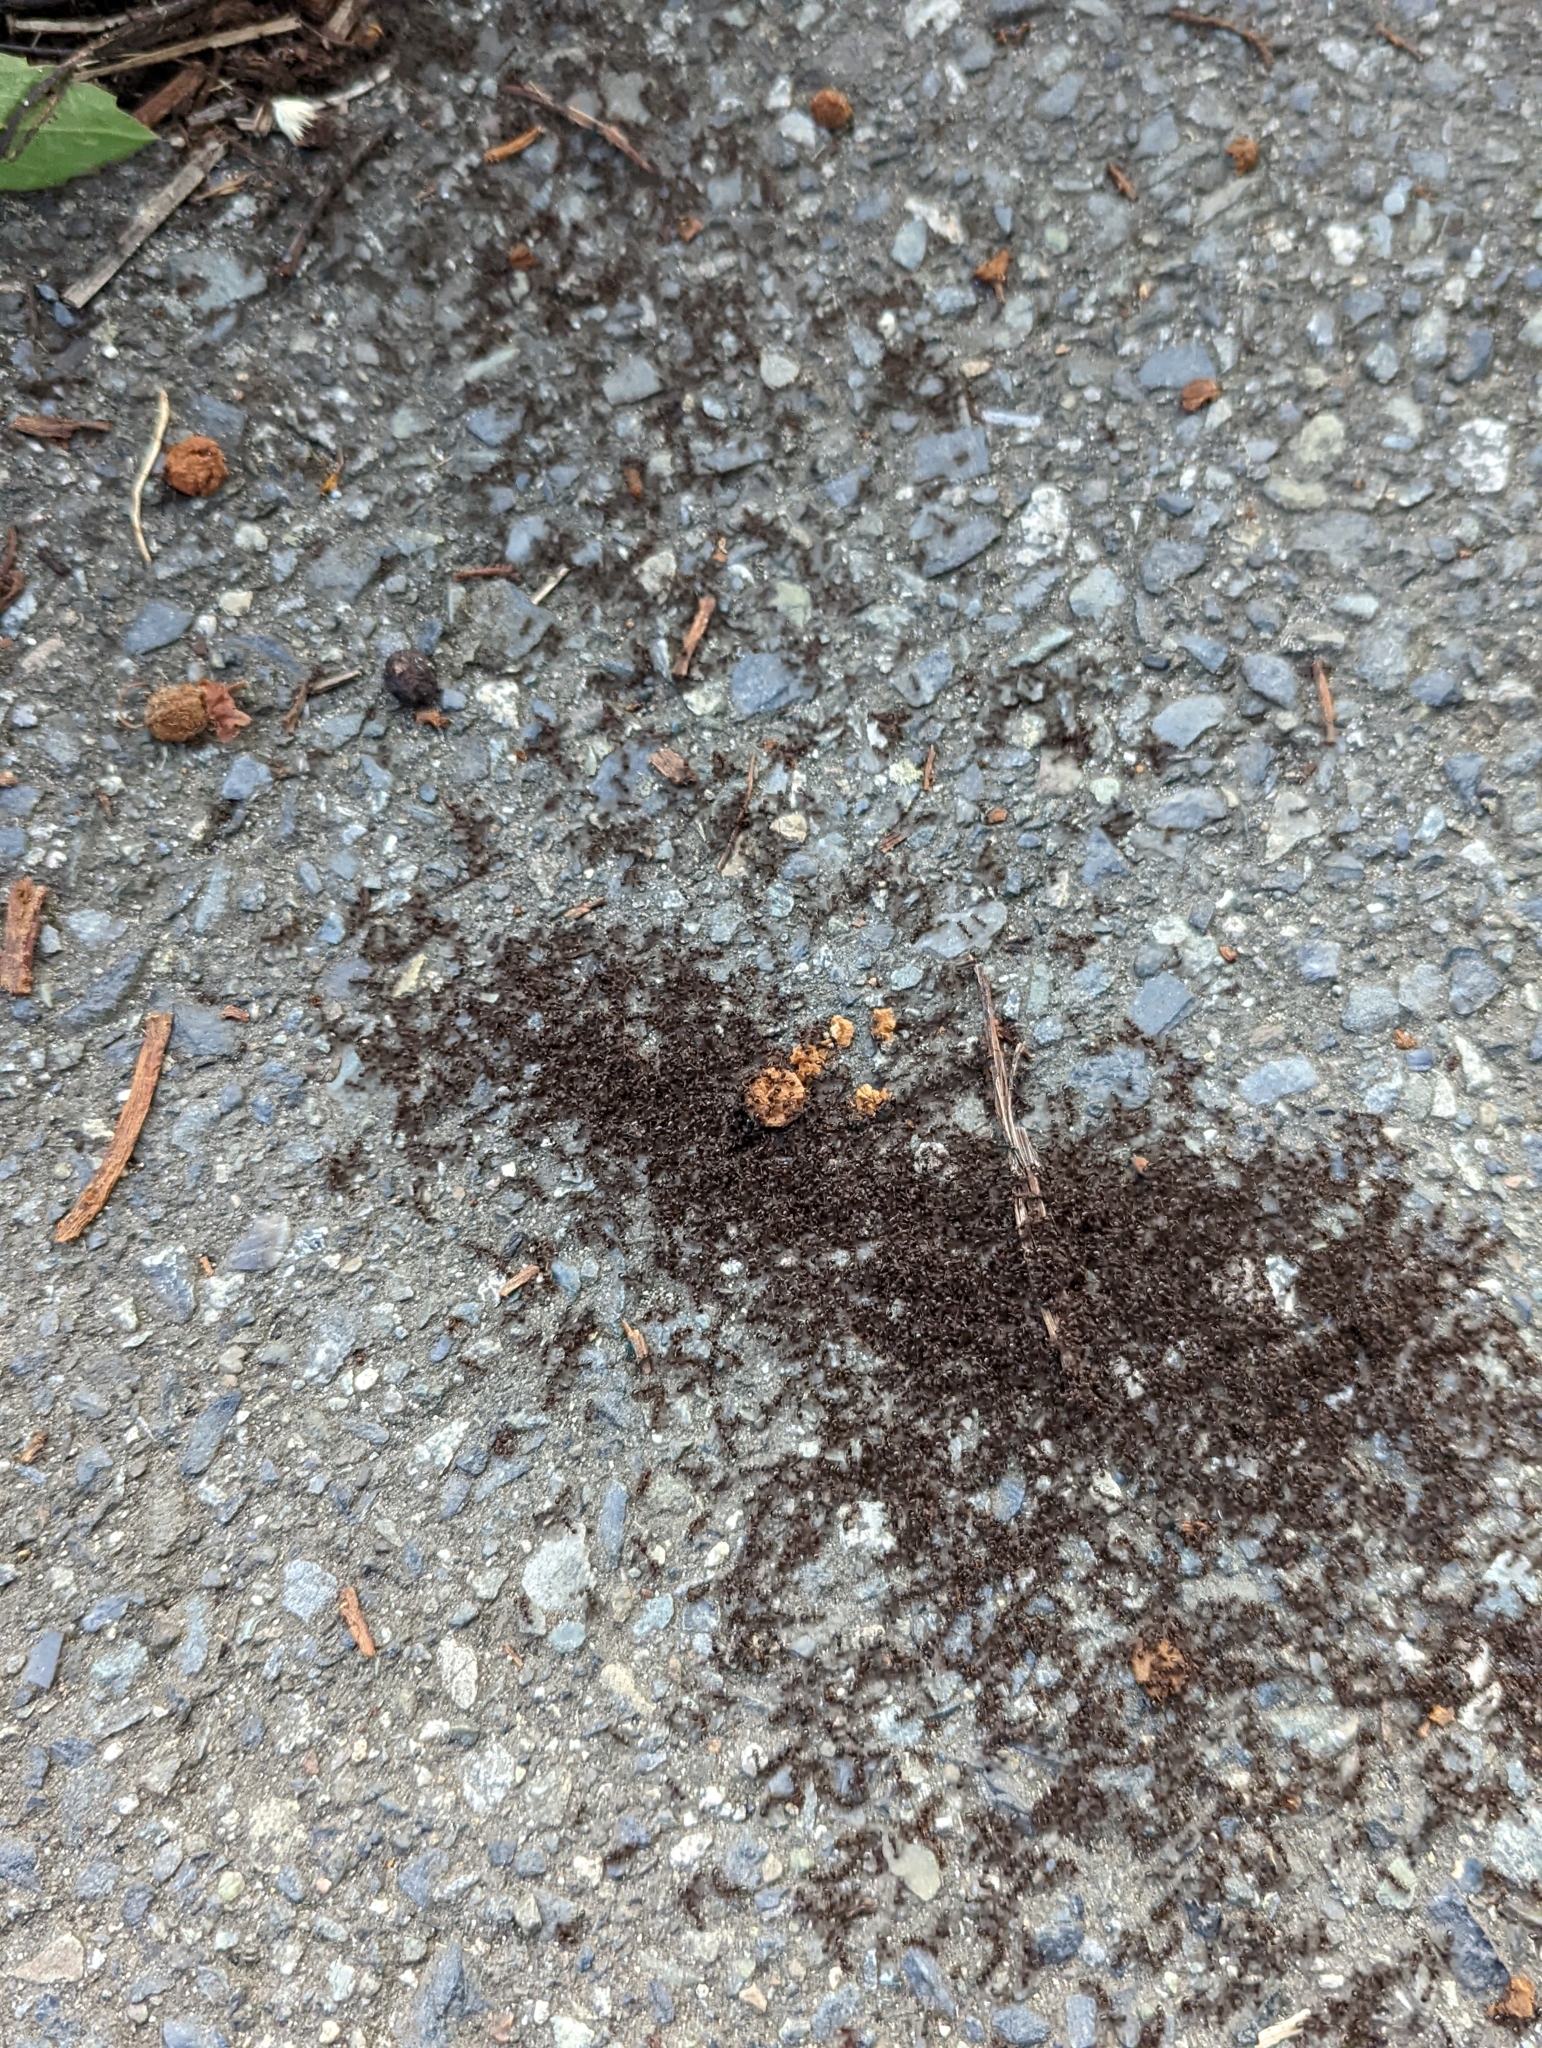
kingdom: Animalia
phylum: Arthropoda
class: Insecta
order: Hymenoptera
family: Formicidae
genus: Tetramorium
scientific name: Tetramorium immigrans
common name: Pavement ant
